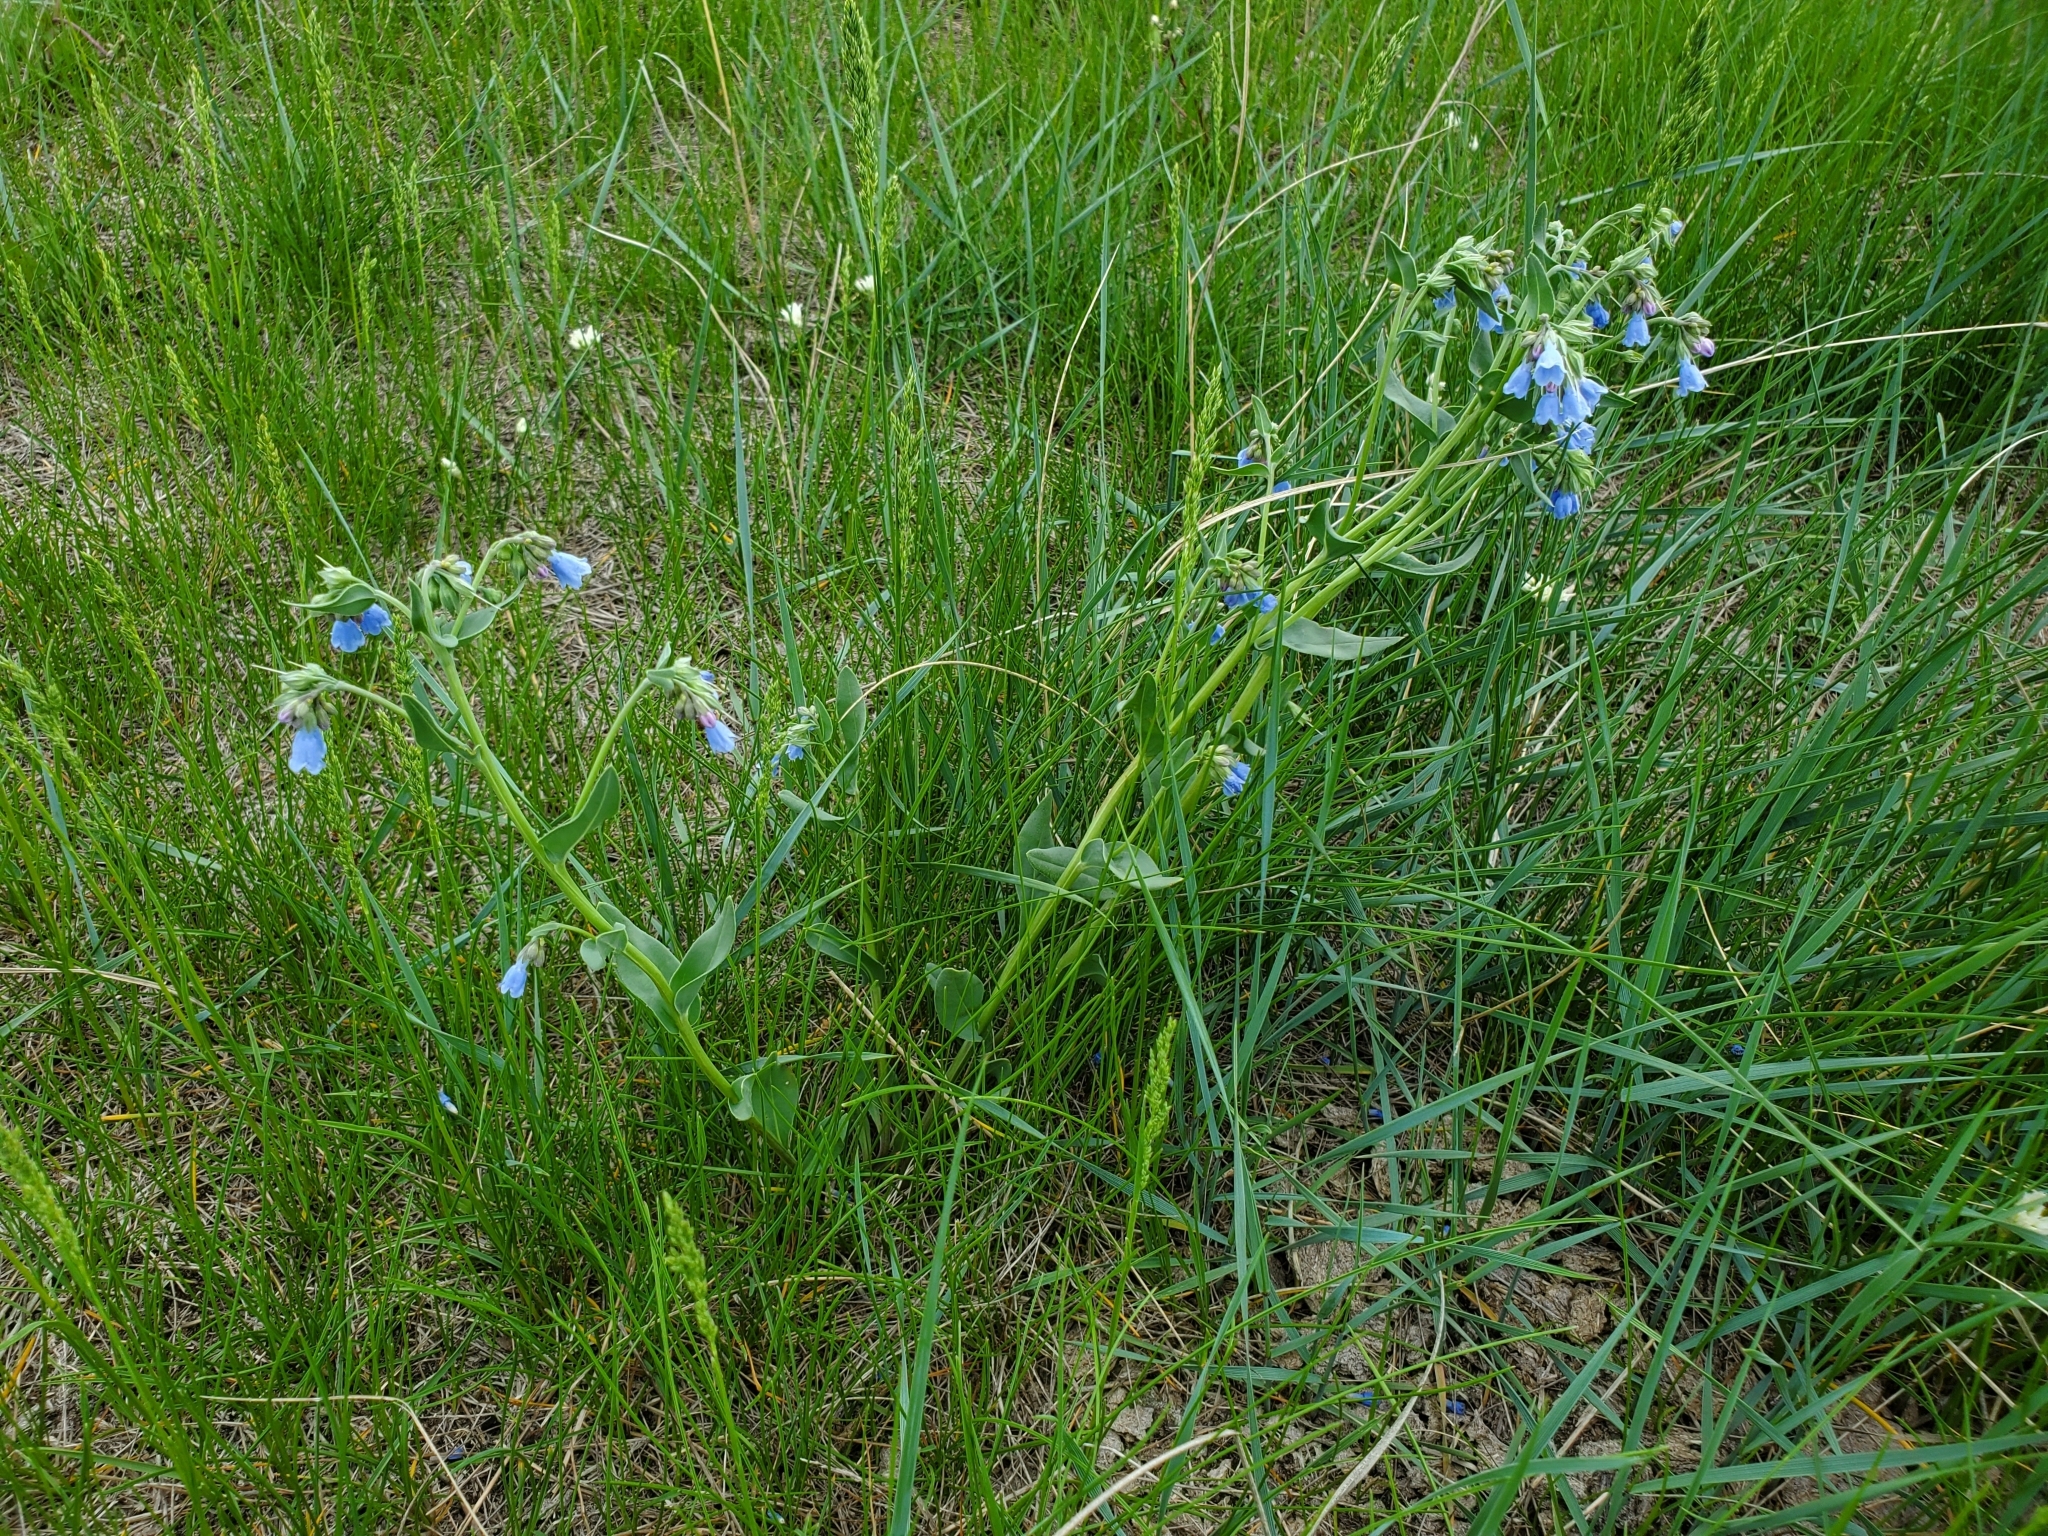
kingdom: Plantae
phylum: Tracheophyta
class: Magnoliopsida
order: Boraginales
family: Boraginaceae
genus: Mertensia
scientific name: Mertensia lanceolata
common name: Lance-leaved bluebells
